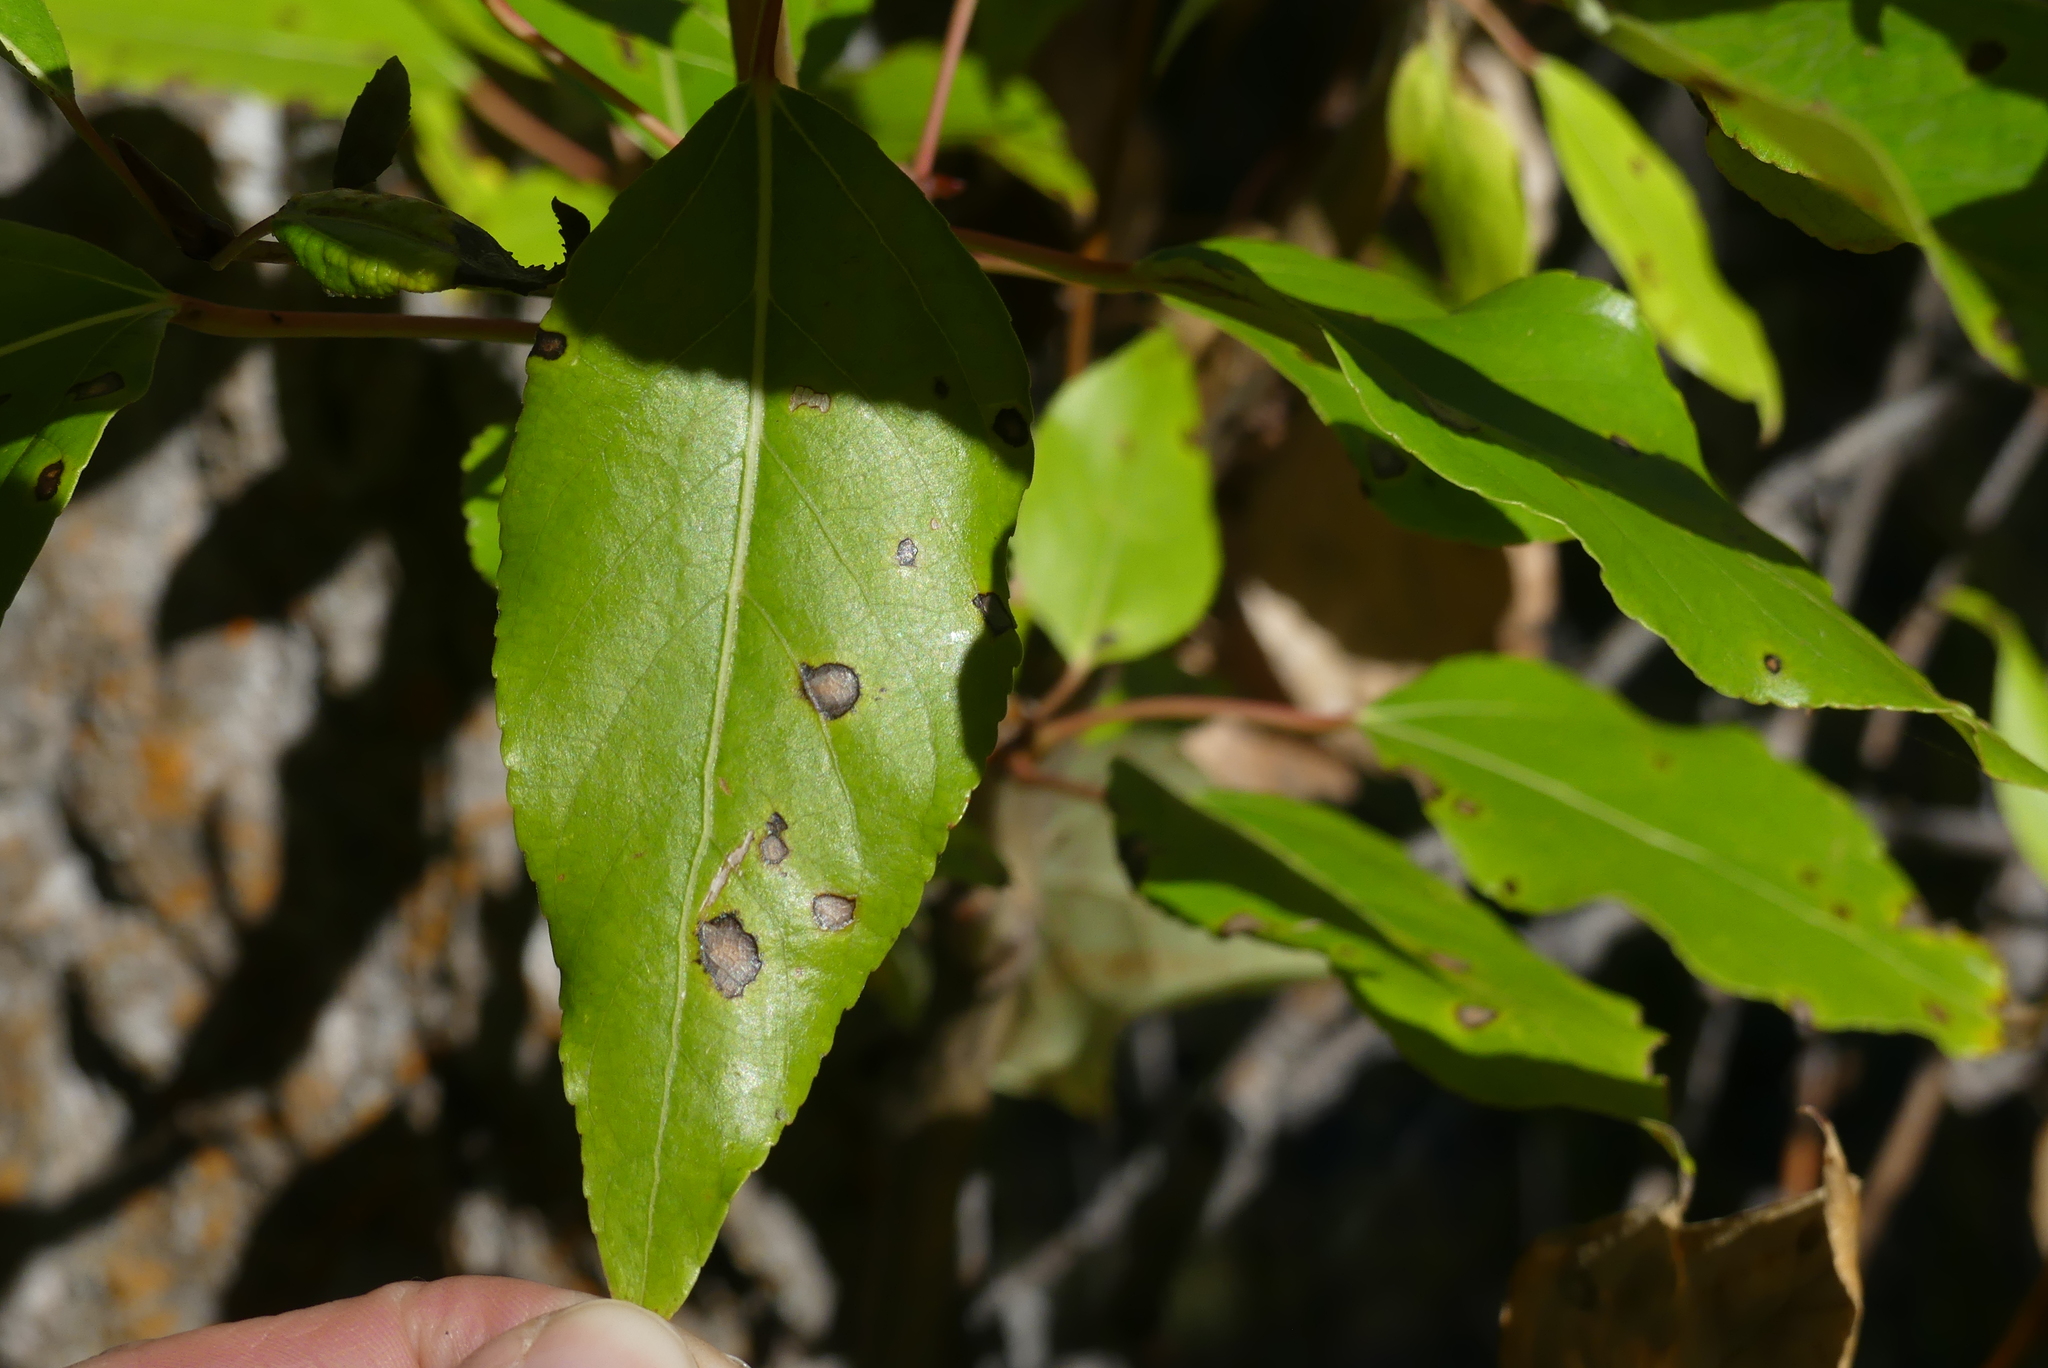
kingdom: Plantae
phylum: Tracheophyta
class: Magnoliopsida
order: Malpighiales
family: Salicaceae
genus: Populus
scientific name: Populus trichocarpa
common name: Black cottonwood
